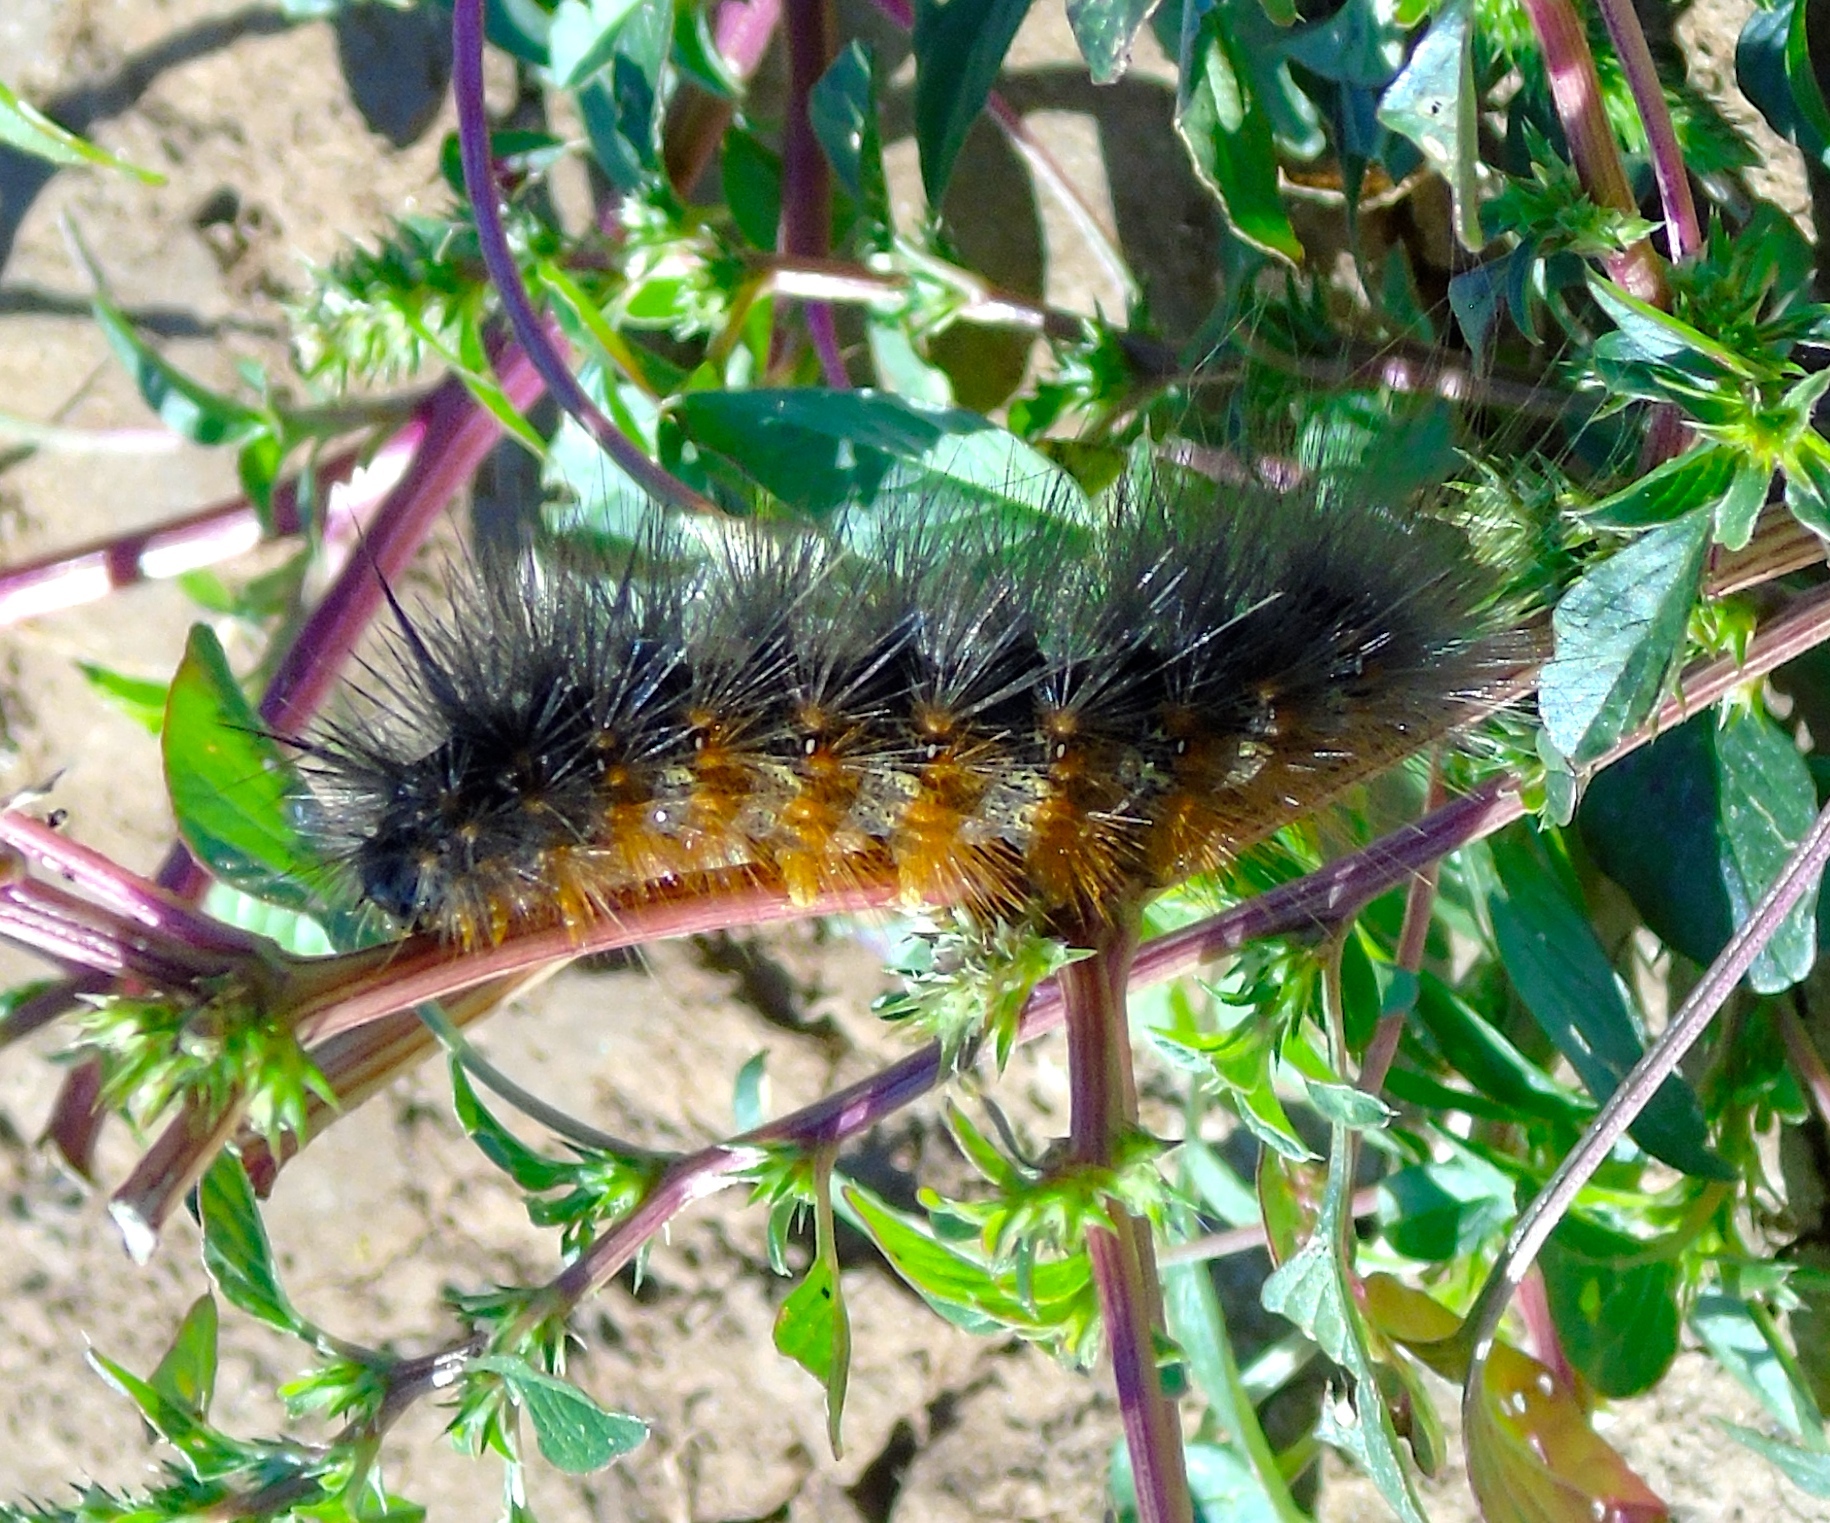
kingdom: Animalia
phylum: Arthropoda
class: Insecta
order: Lepidoptera
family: Erebidae
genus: Spilosoma
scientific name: Spilosoma
